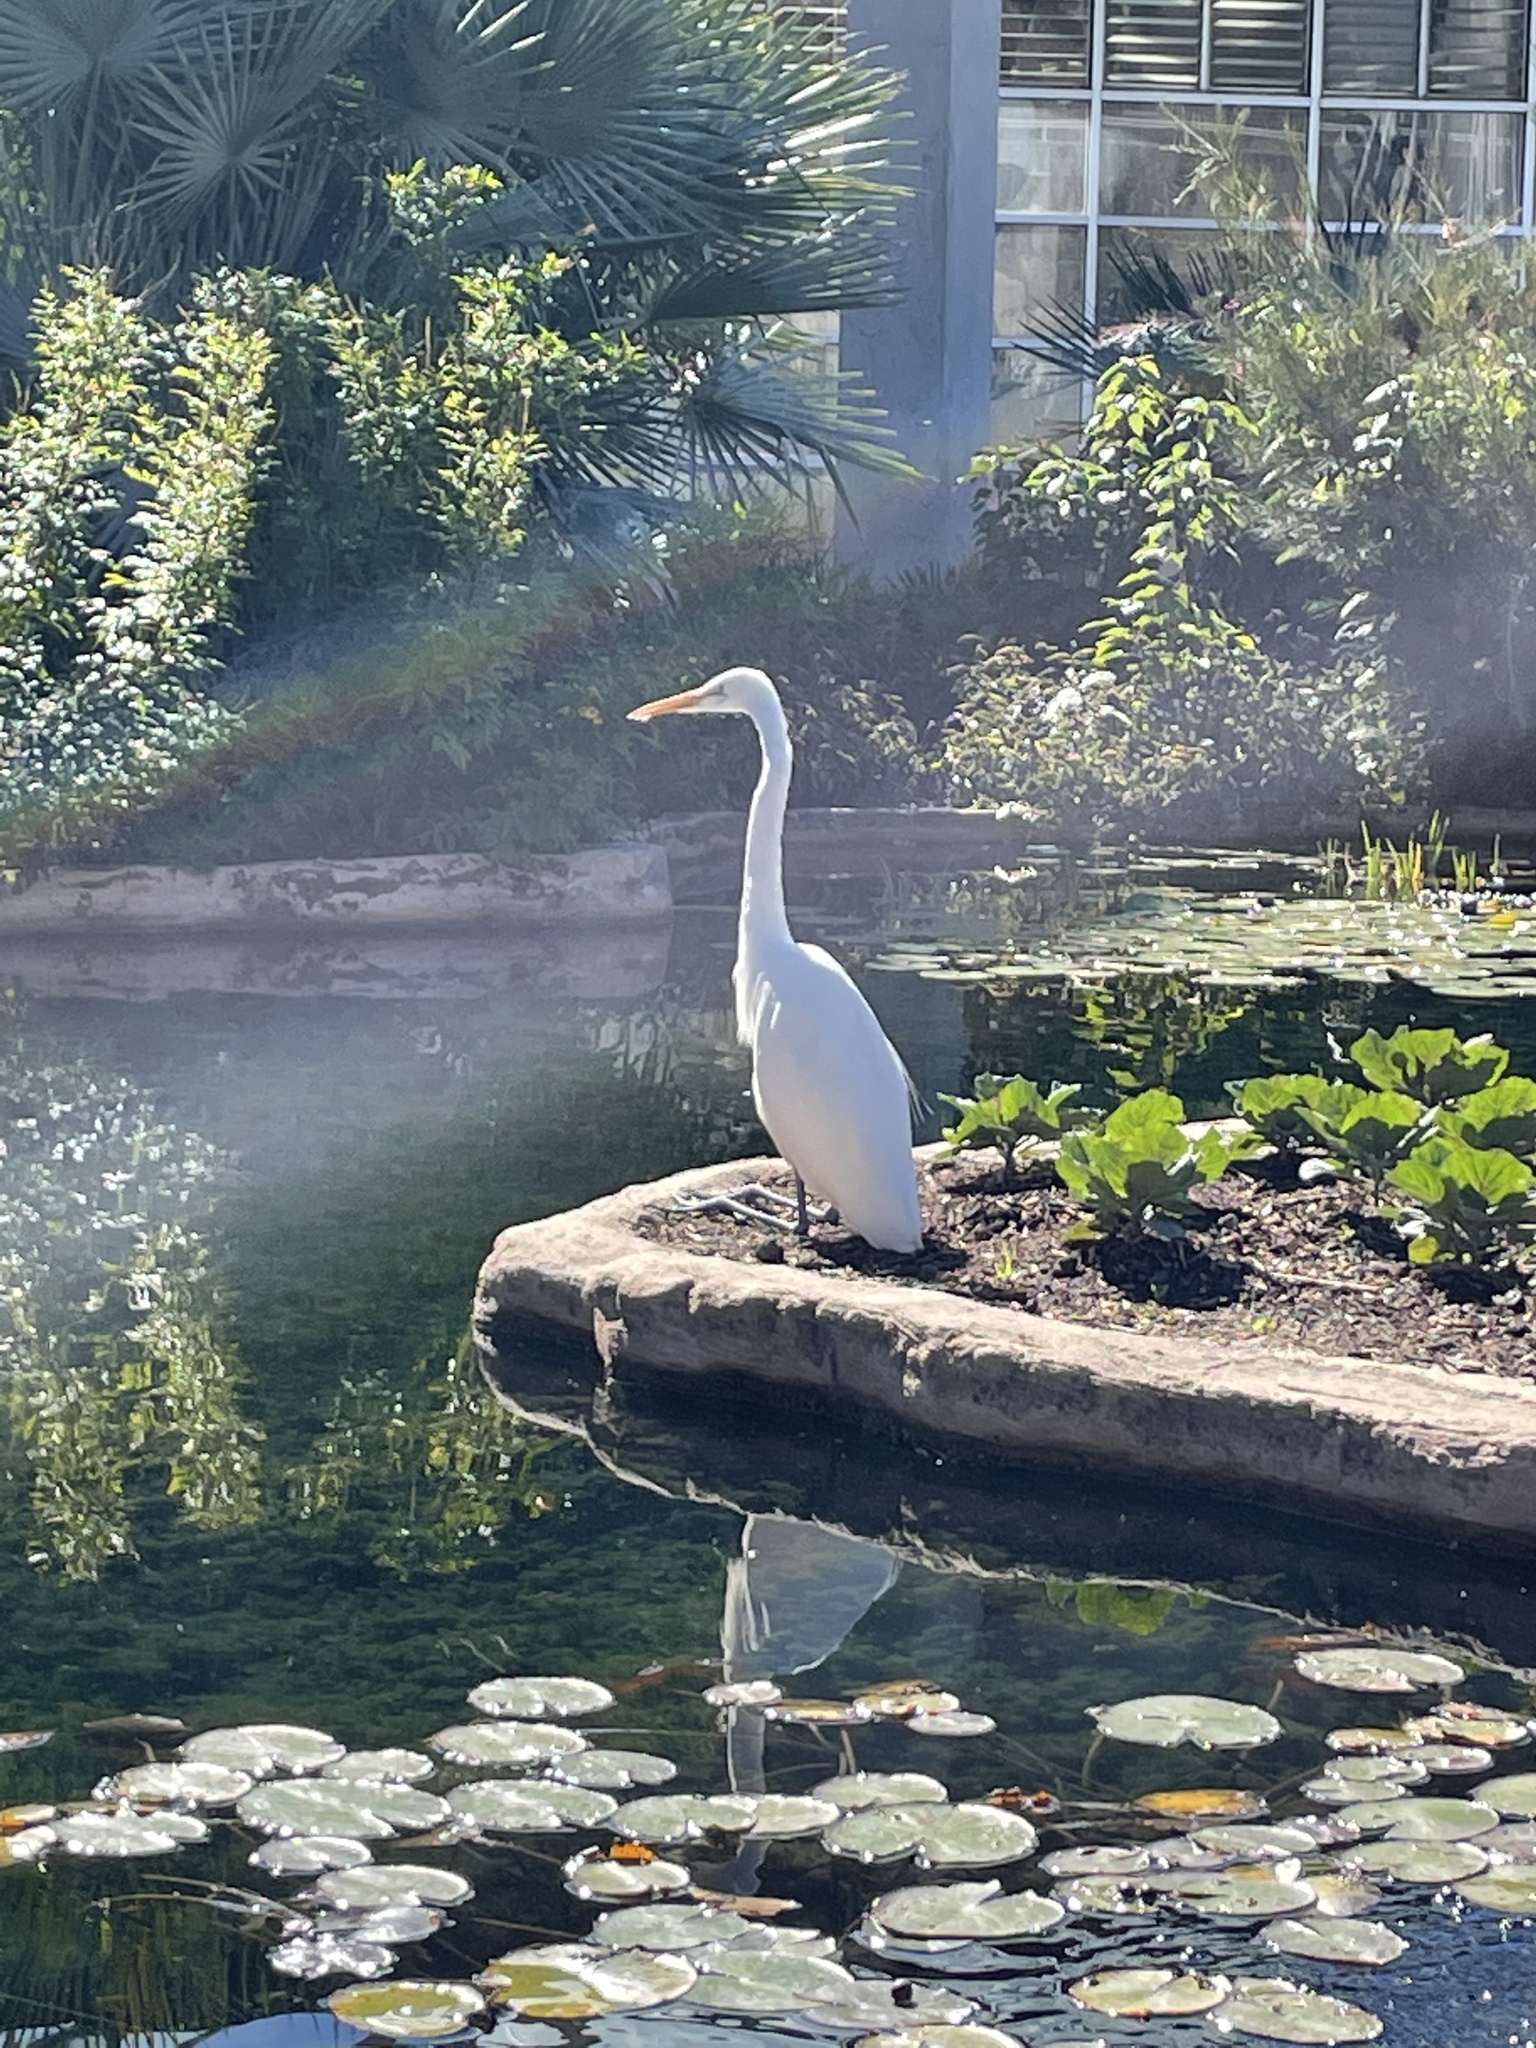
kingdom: Animalia
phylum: Chordata
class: Aves
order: Pelecaniformes
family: Ardeidae
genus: Ardea
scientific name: Ardea alba
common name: Great egret
